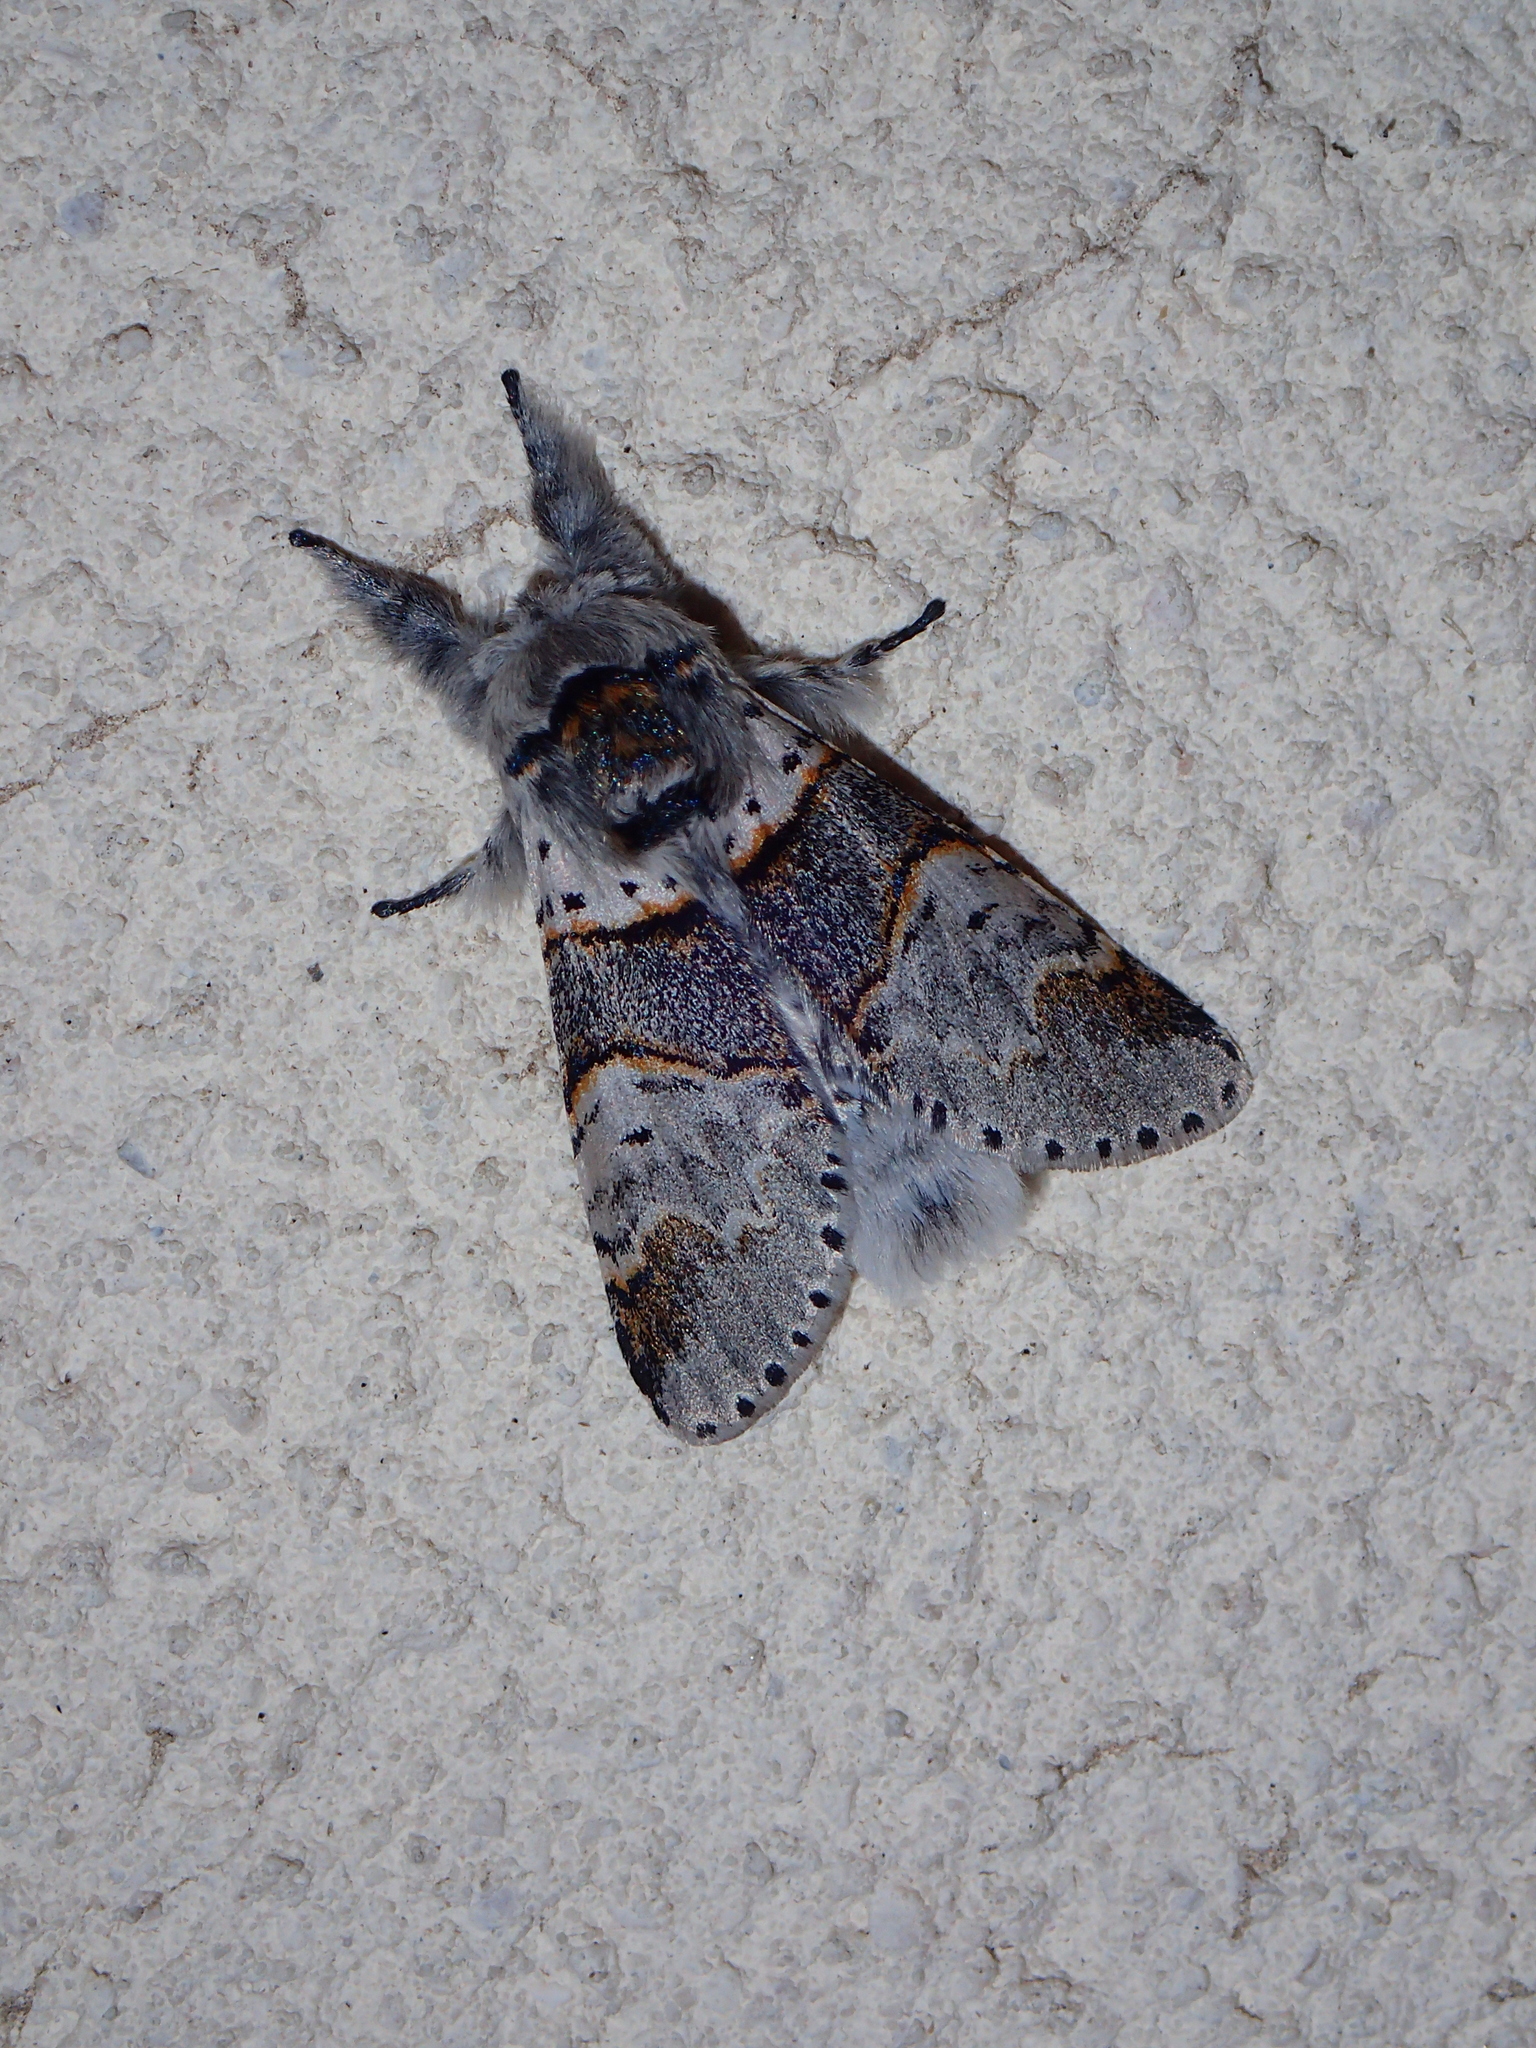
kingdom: Animalia
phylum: Arthropoda
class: Insecta
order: Lepidoptera
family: Notodontidae
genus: Furcula
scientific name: Furcula furcula
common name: Sallow kitten
